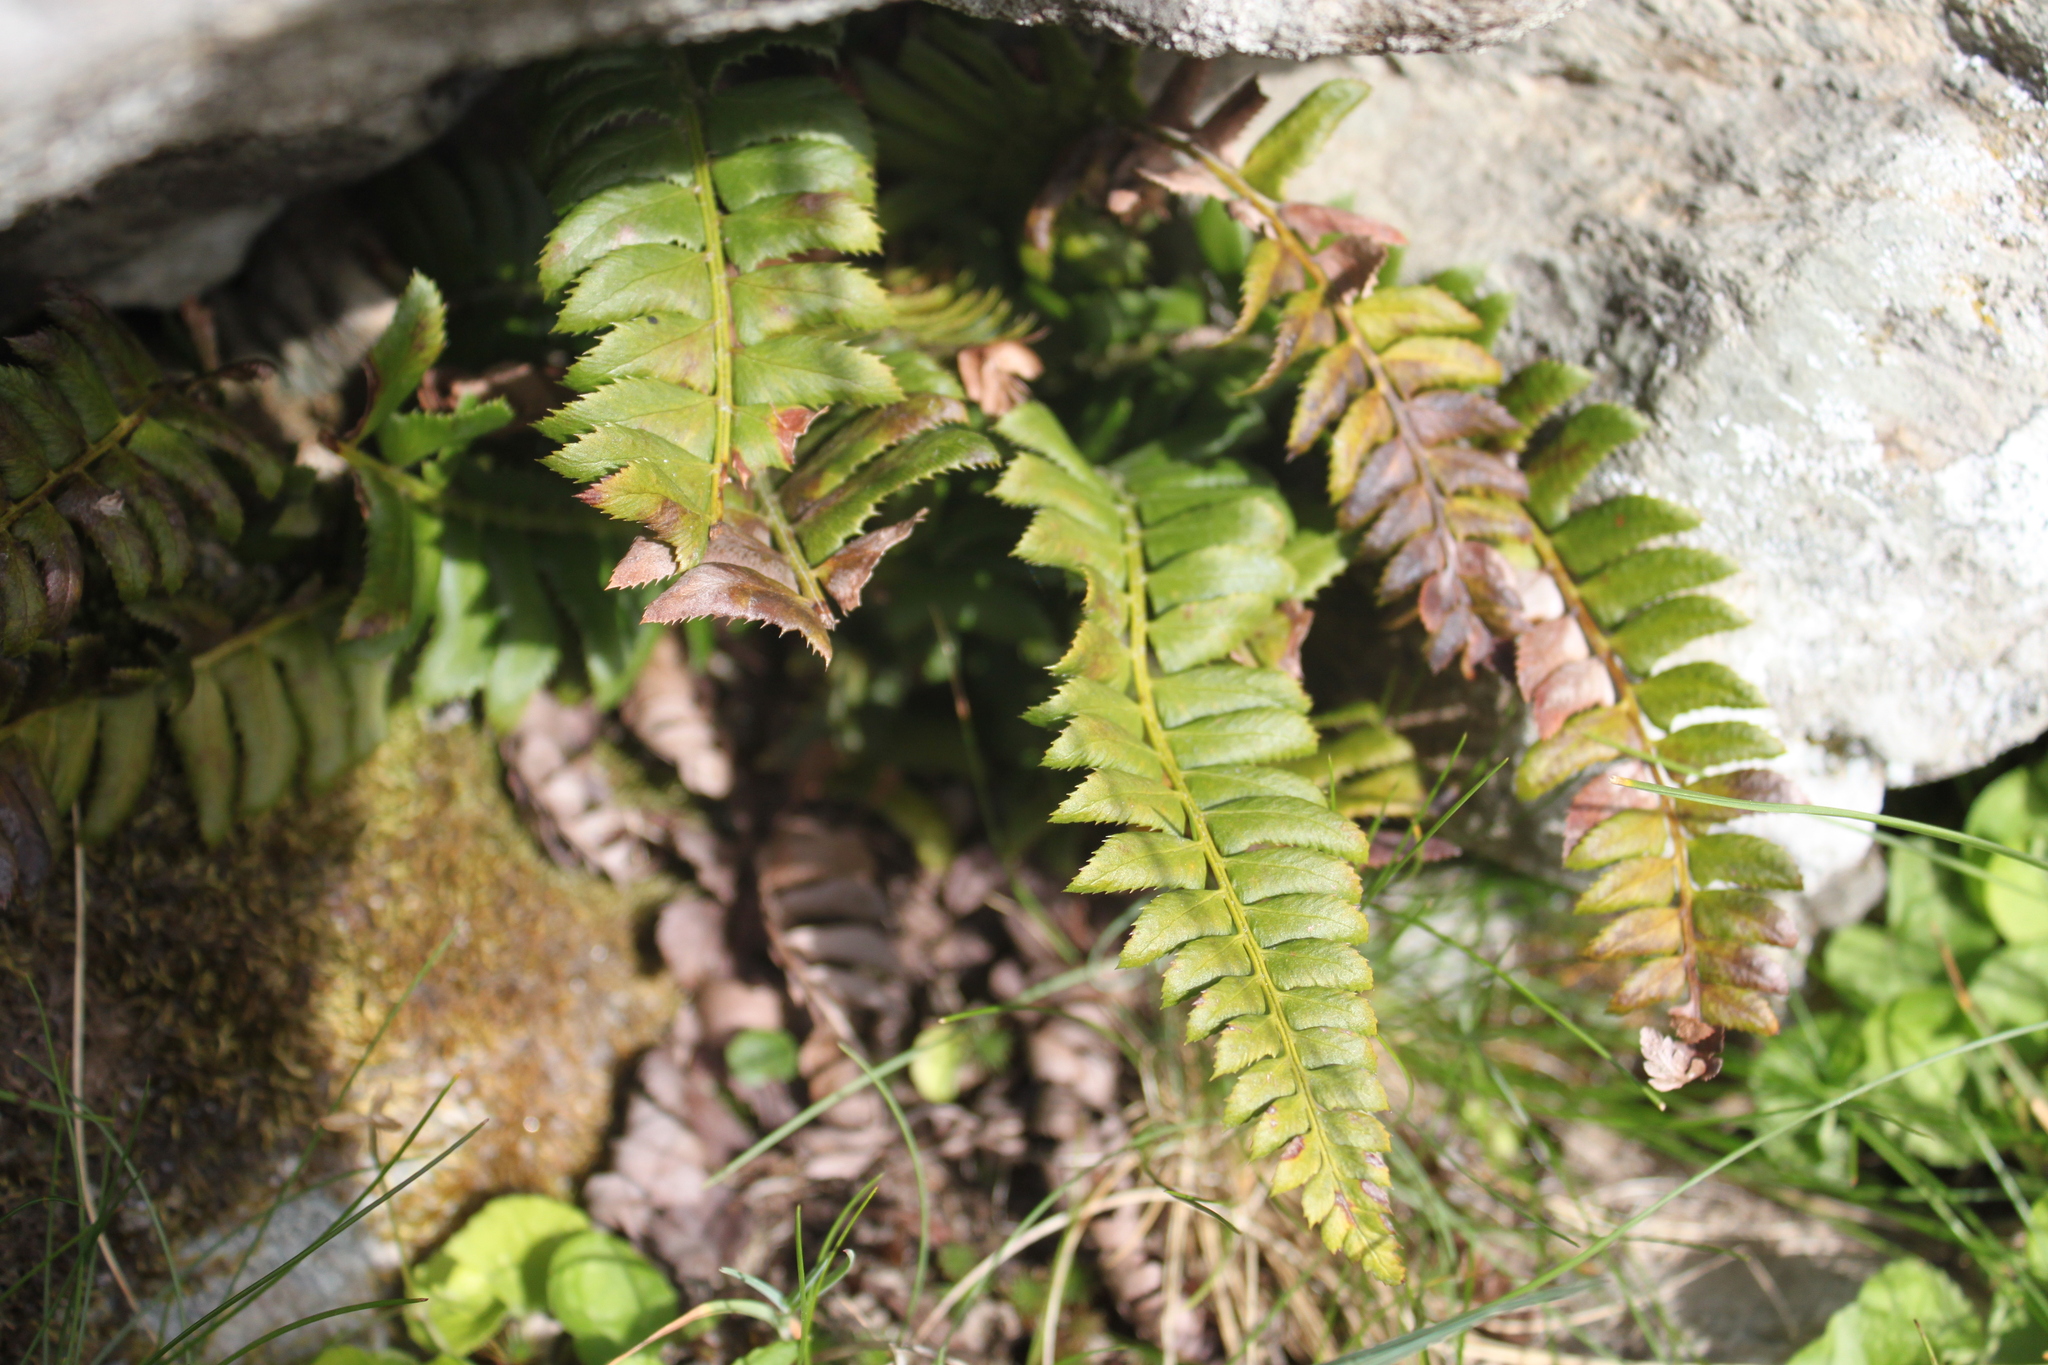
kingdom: Plantae
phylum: Tracheophyta
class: Polypodiopsida
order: Polypodiales
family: Dryopteridaceae
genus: Polystichum
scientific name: Polystichum lonchitis
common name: Holly fern
